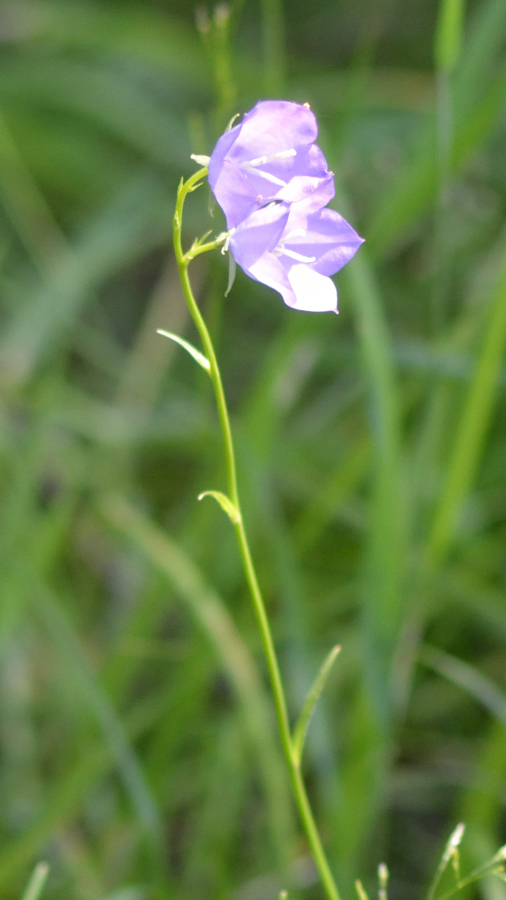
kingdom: Plantae
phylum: Tracheophyta
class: Magnoliopsida
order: Asterales
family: Campanulaceae
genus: Campanula
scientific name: Campanula persicifolia
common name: Peach-leaved bellflower
